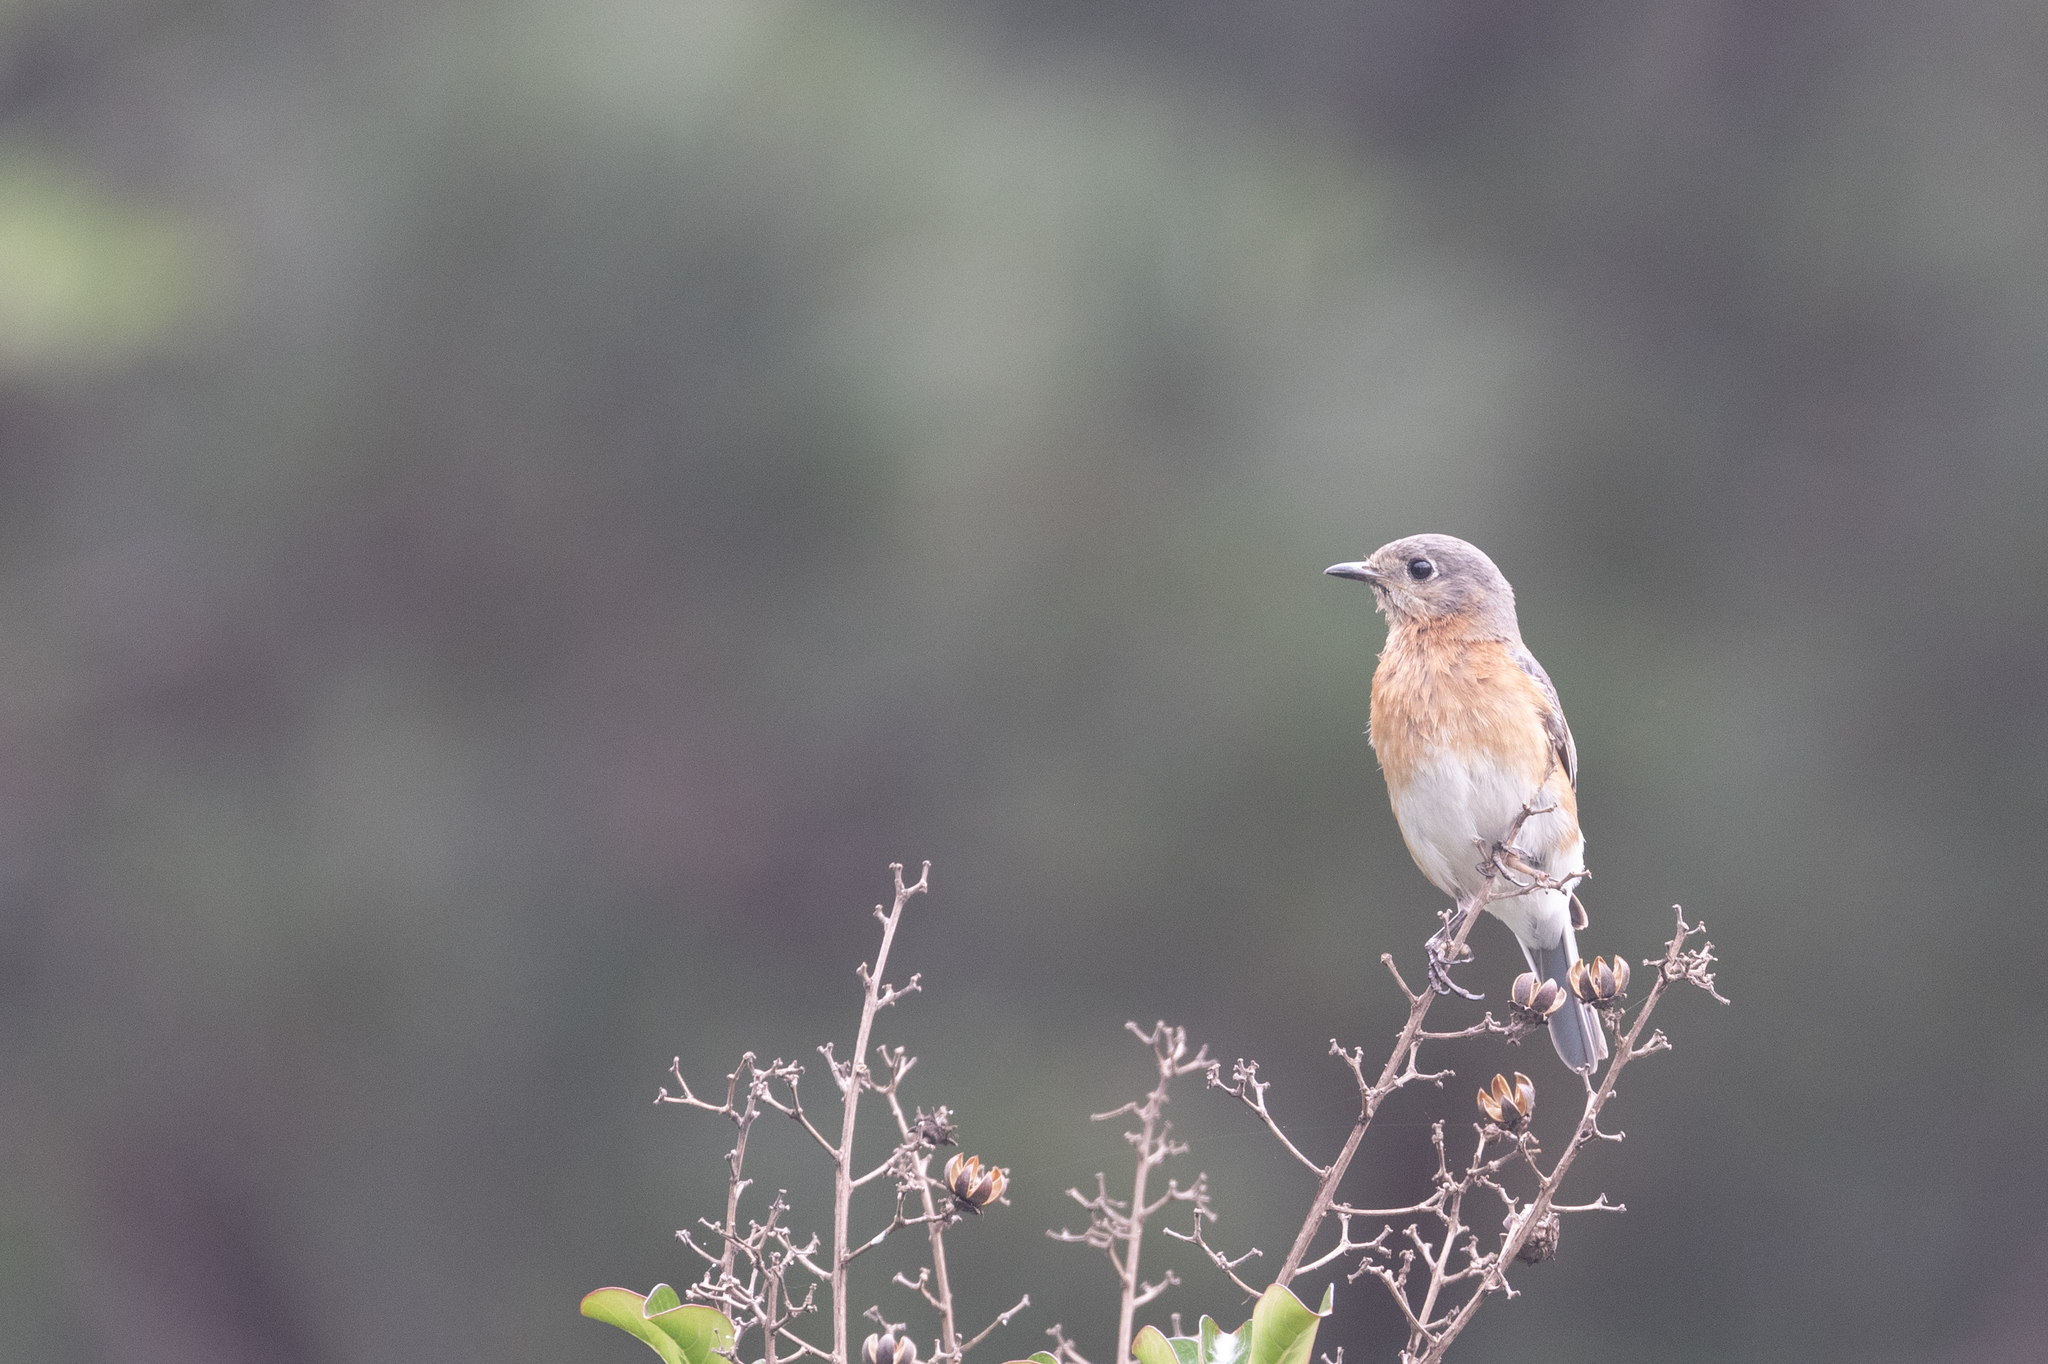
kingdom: Animalia
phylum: Chordata
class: Aves
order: Passeriformes
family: Turdidae
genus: Sialia
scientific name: Sialia sialis
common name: Eastern bluebird
